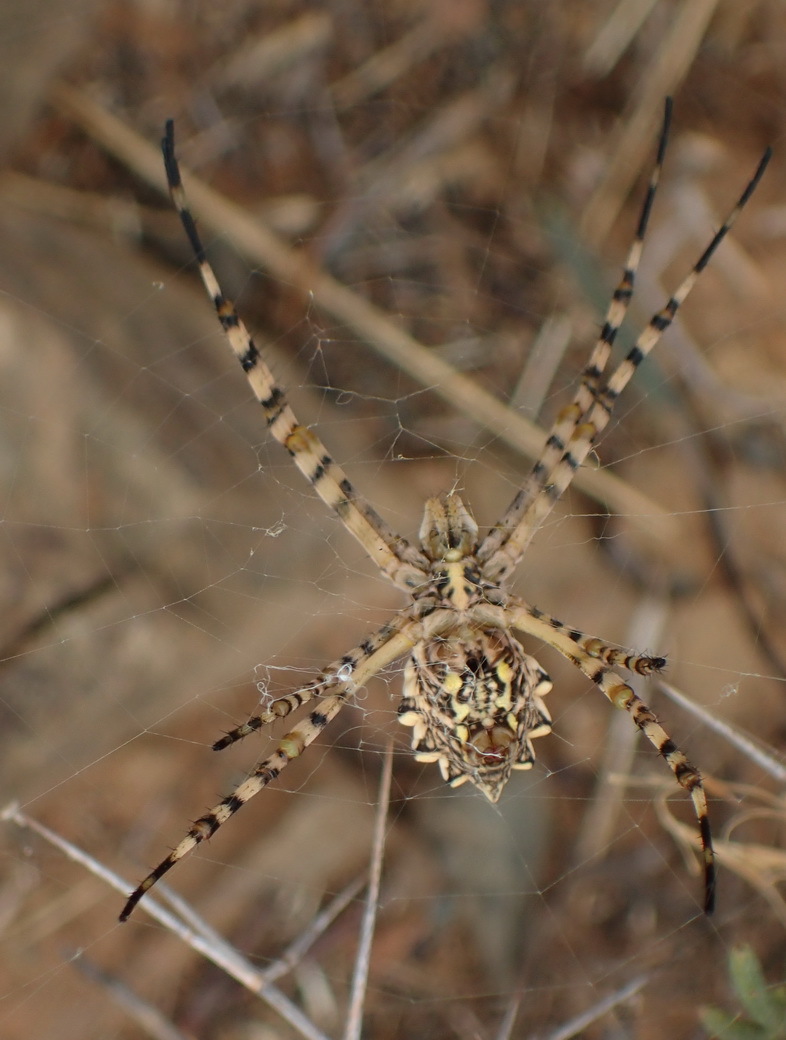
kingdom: Animalia
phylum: Arthropoda
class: Arachnida
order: Araneae
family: Araneidae
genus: Argiope
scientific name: Argiope australis
